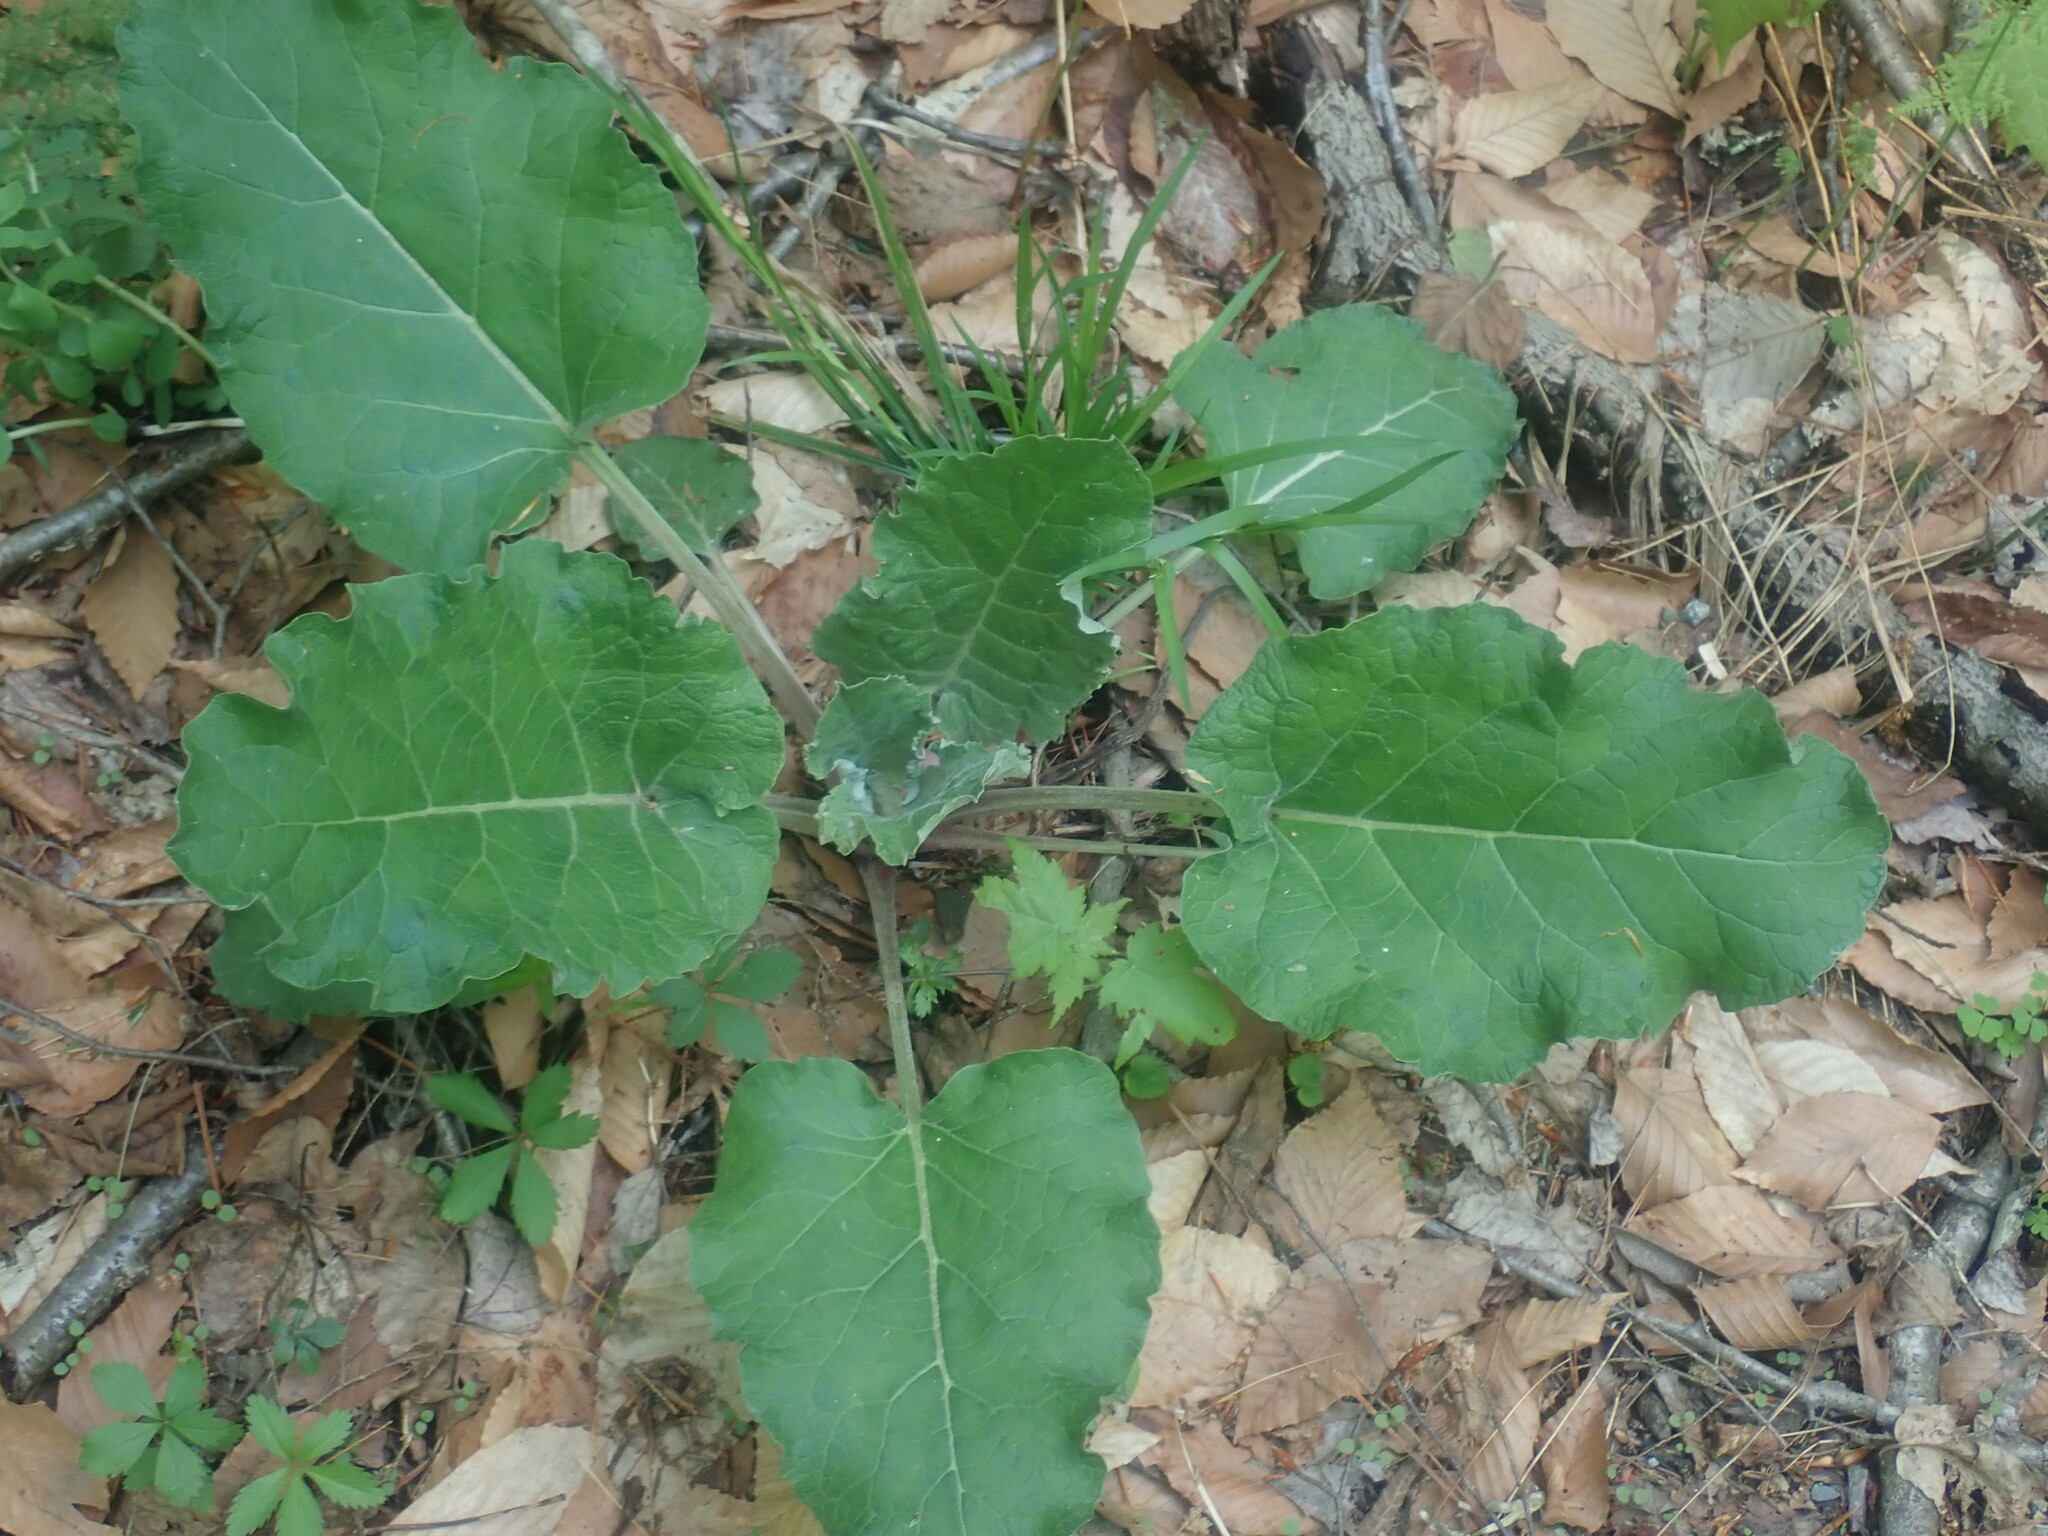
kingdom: Plantae
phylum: Tracheophyta
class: Magnoliopsida
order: Asterales
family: Asteraceae
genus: Arctium
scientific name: Arctium
